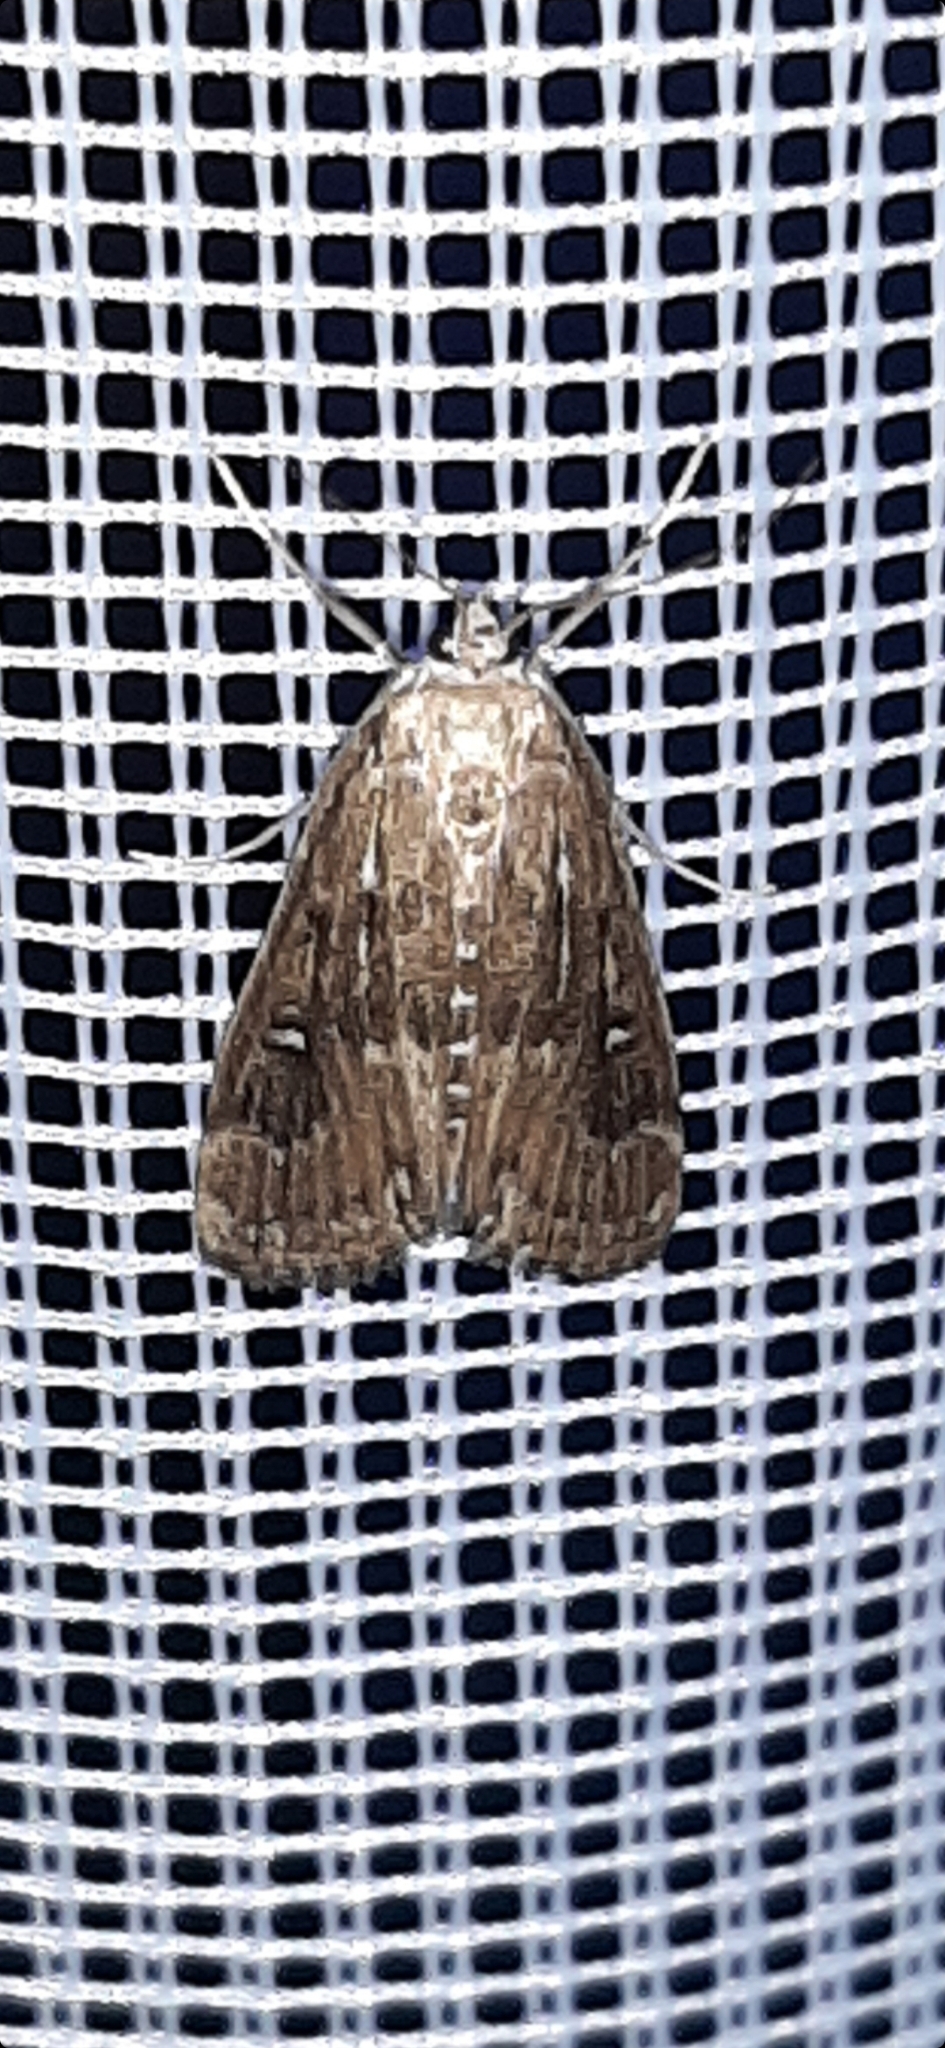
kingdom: Animalia
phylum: Arthropoda
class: Insecta
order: Lepidoptera
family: Crambidae
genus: Parapoynx
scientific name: Parapoynx stratiotata
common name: Ringed china-mark
